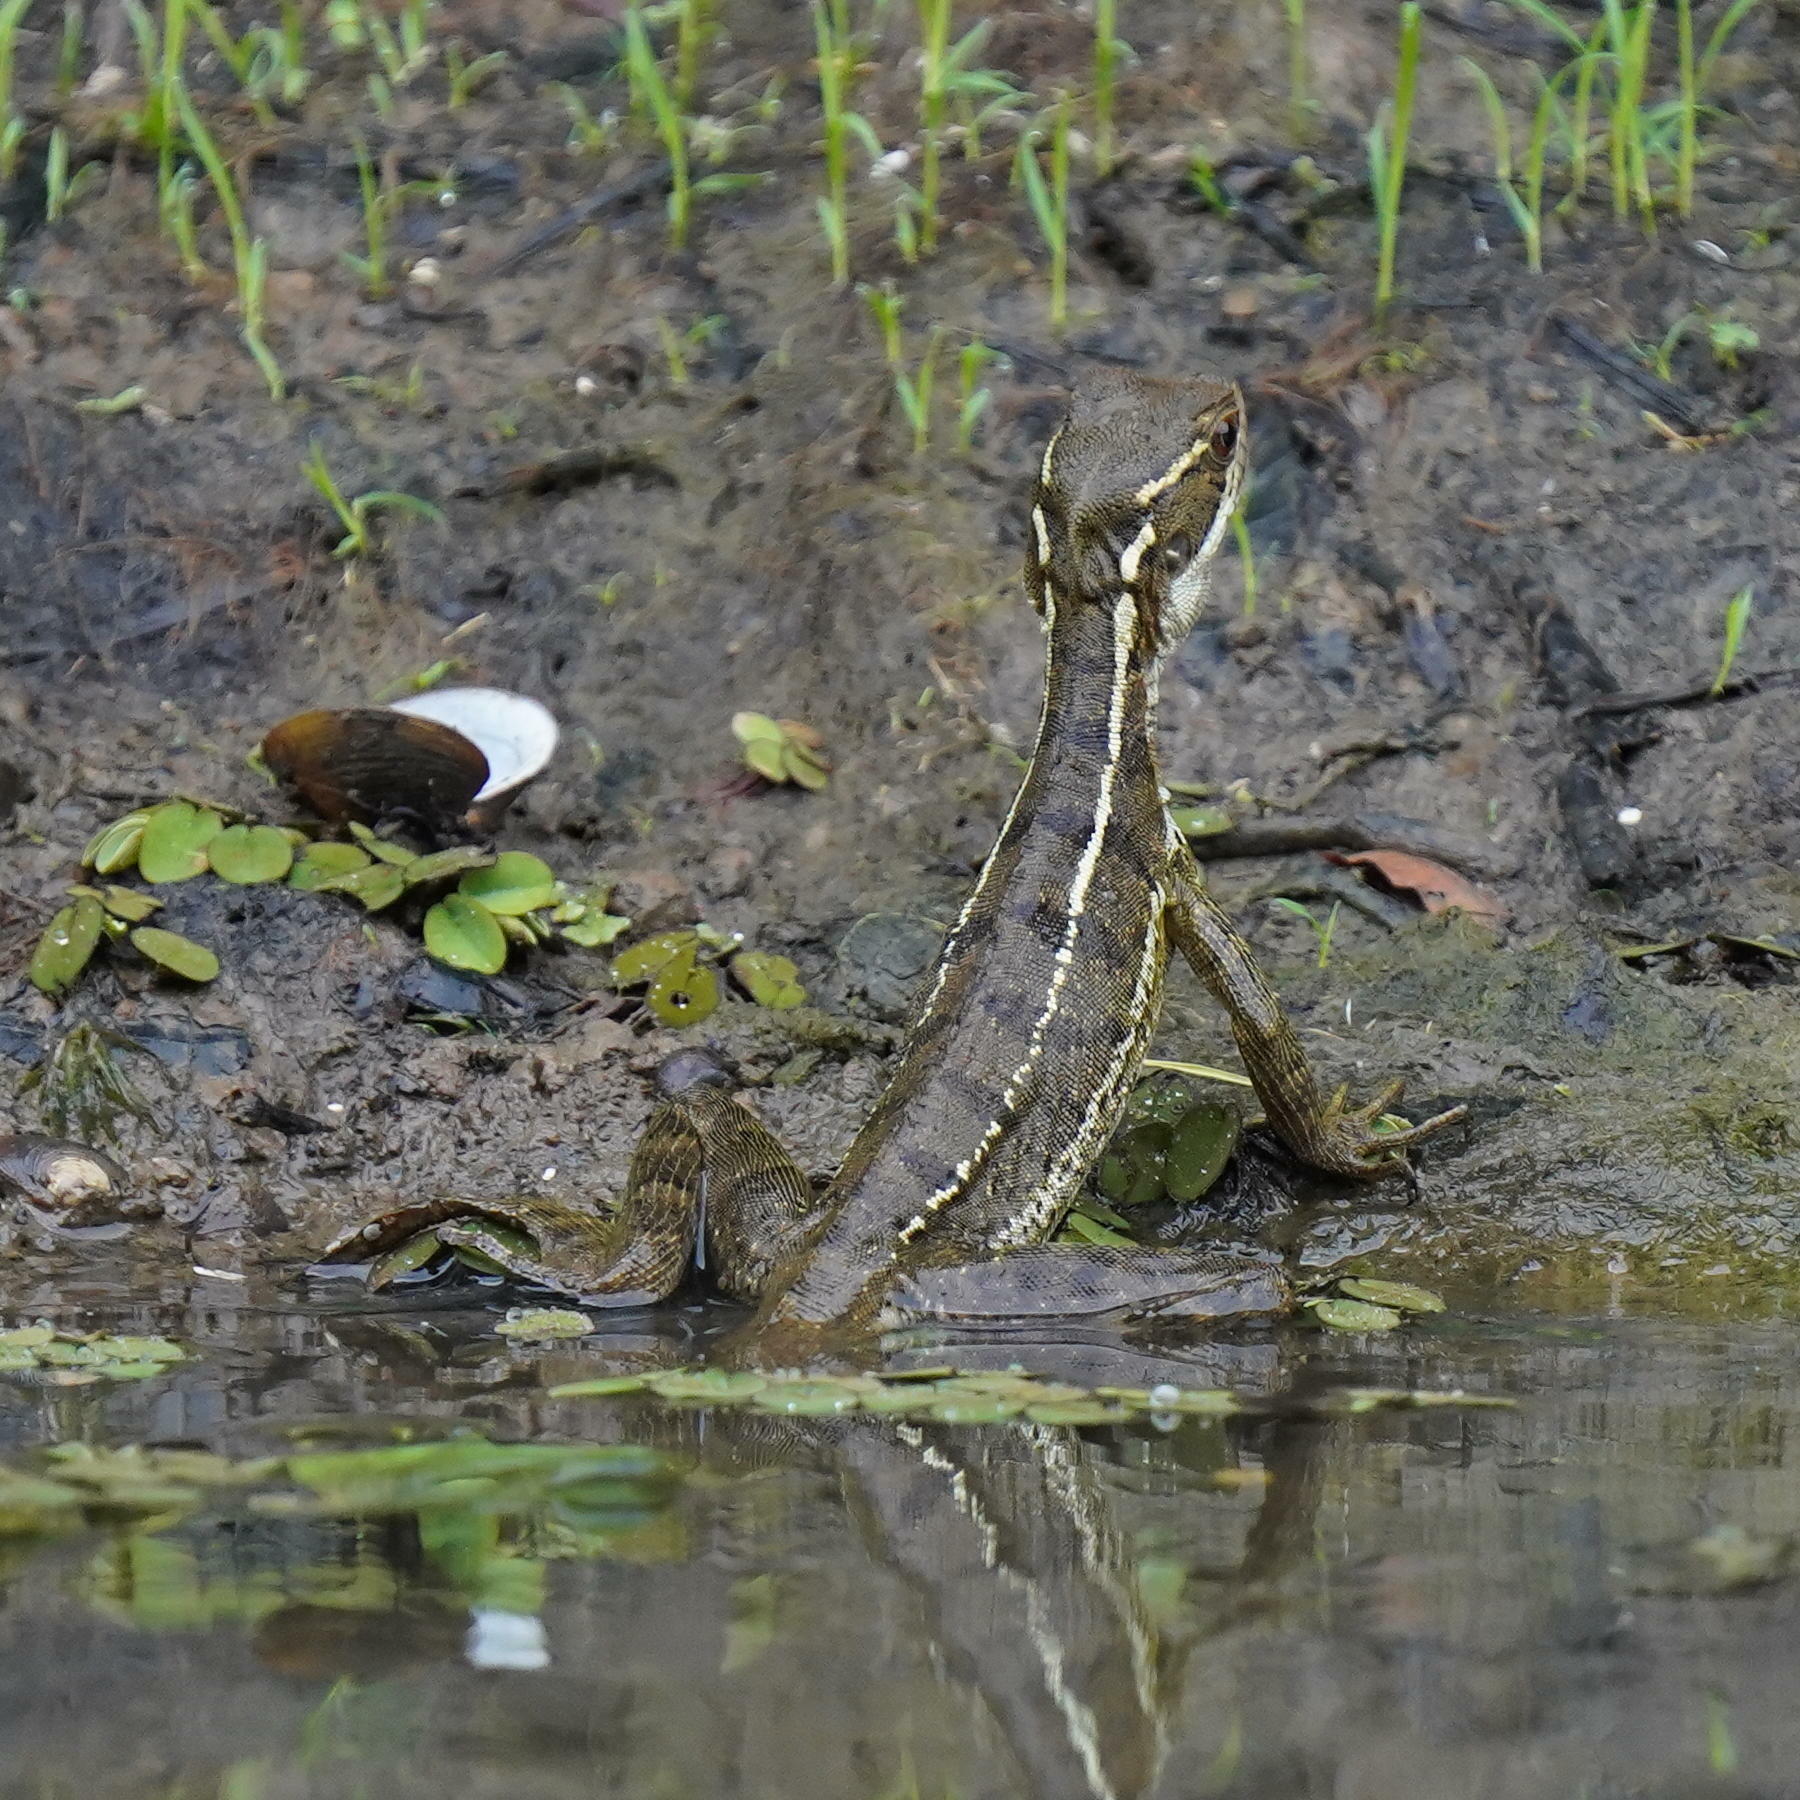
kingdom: Animalia
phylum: Chordata
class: Squamata
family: Corytophanidae
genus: Basiliscus
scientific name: Basiliscus basiliscus
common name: Common basilisk
